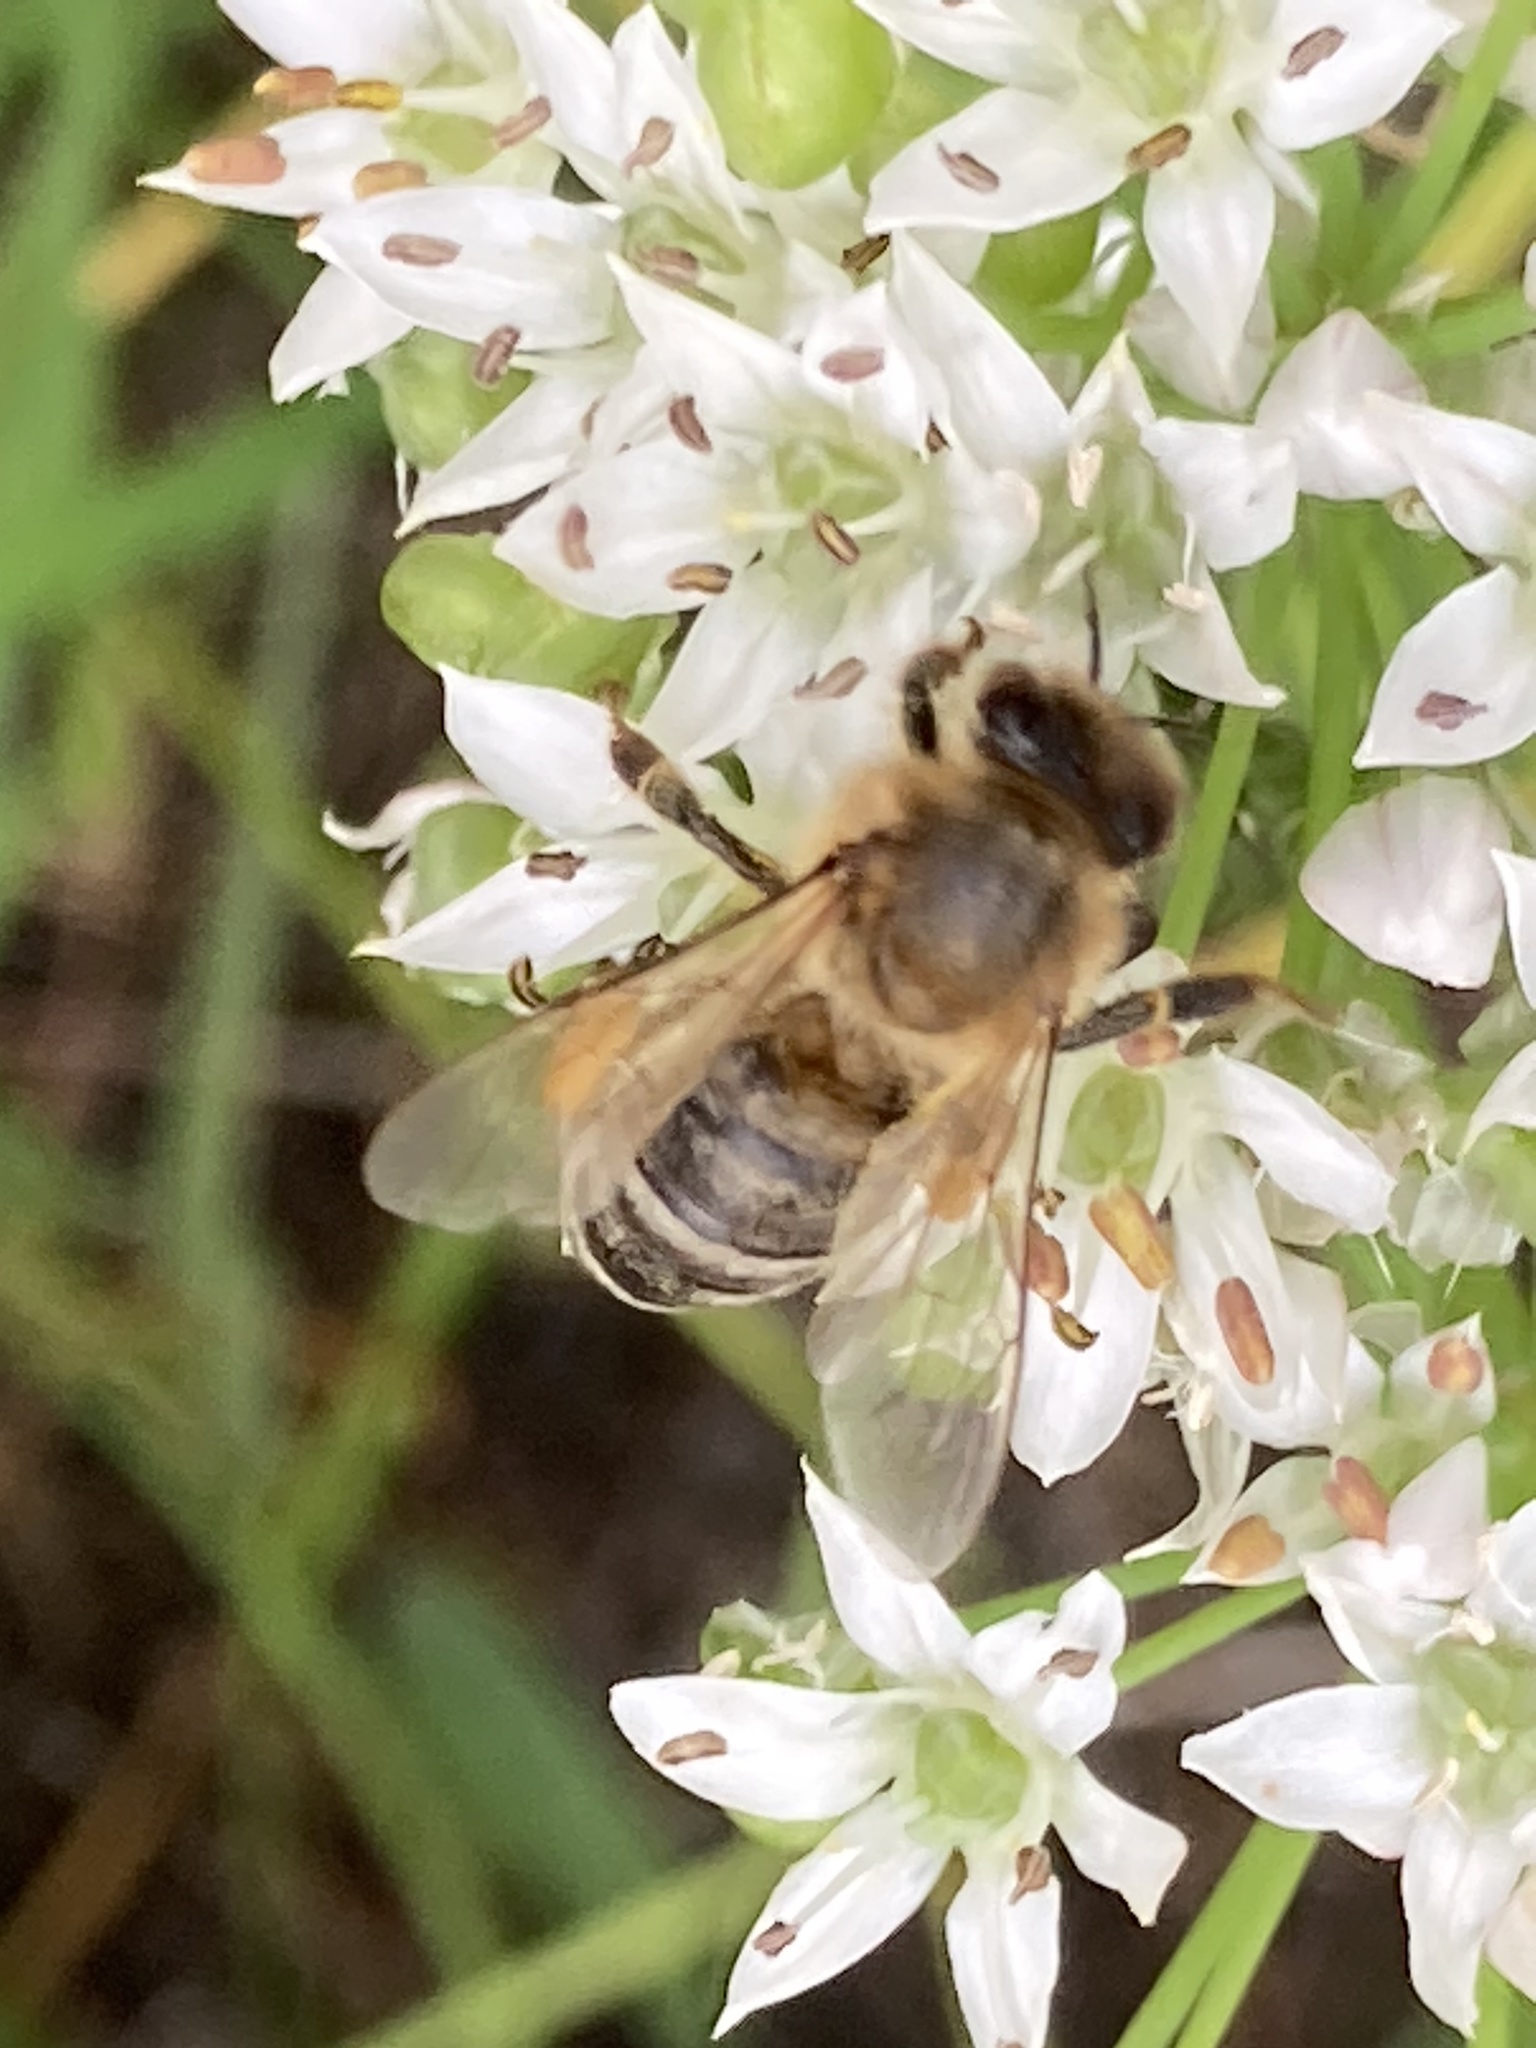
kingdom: Animalia
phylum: Arthropoda
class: Insecta
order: Hymenoptera
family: Apidae
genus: Apis
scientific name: Apis mellifera
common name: Honey bee
